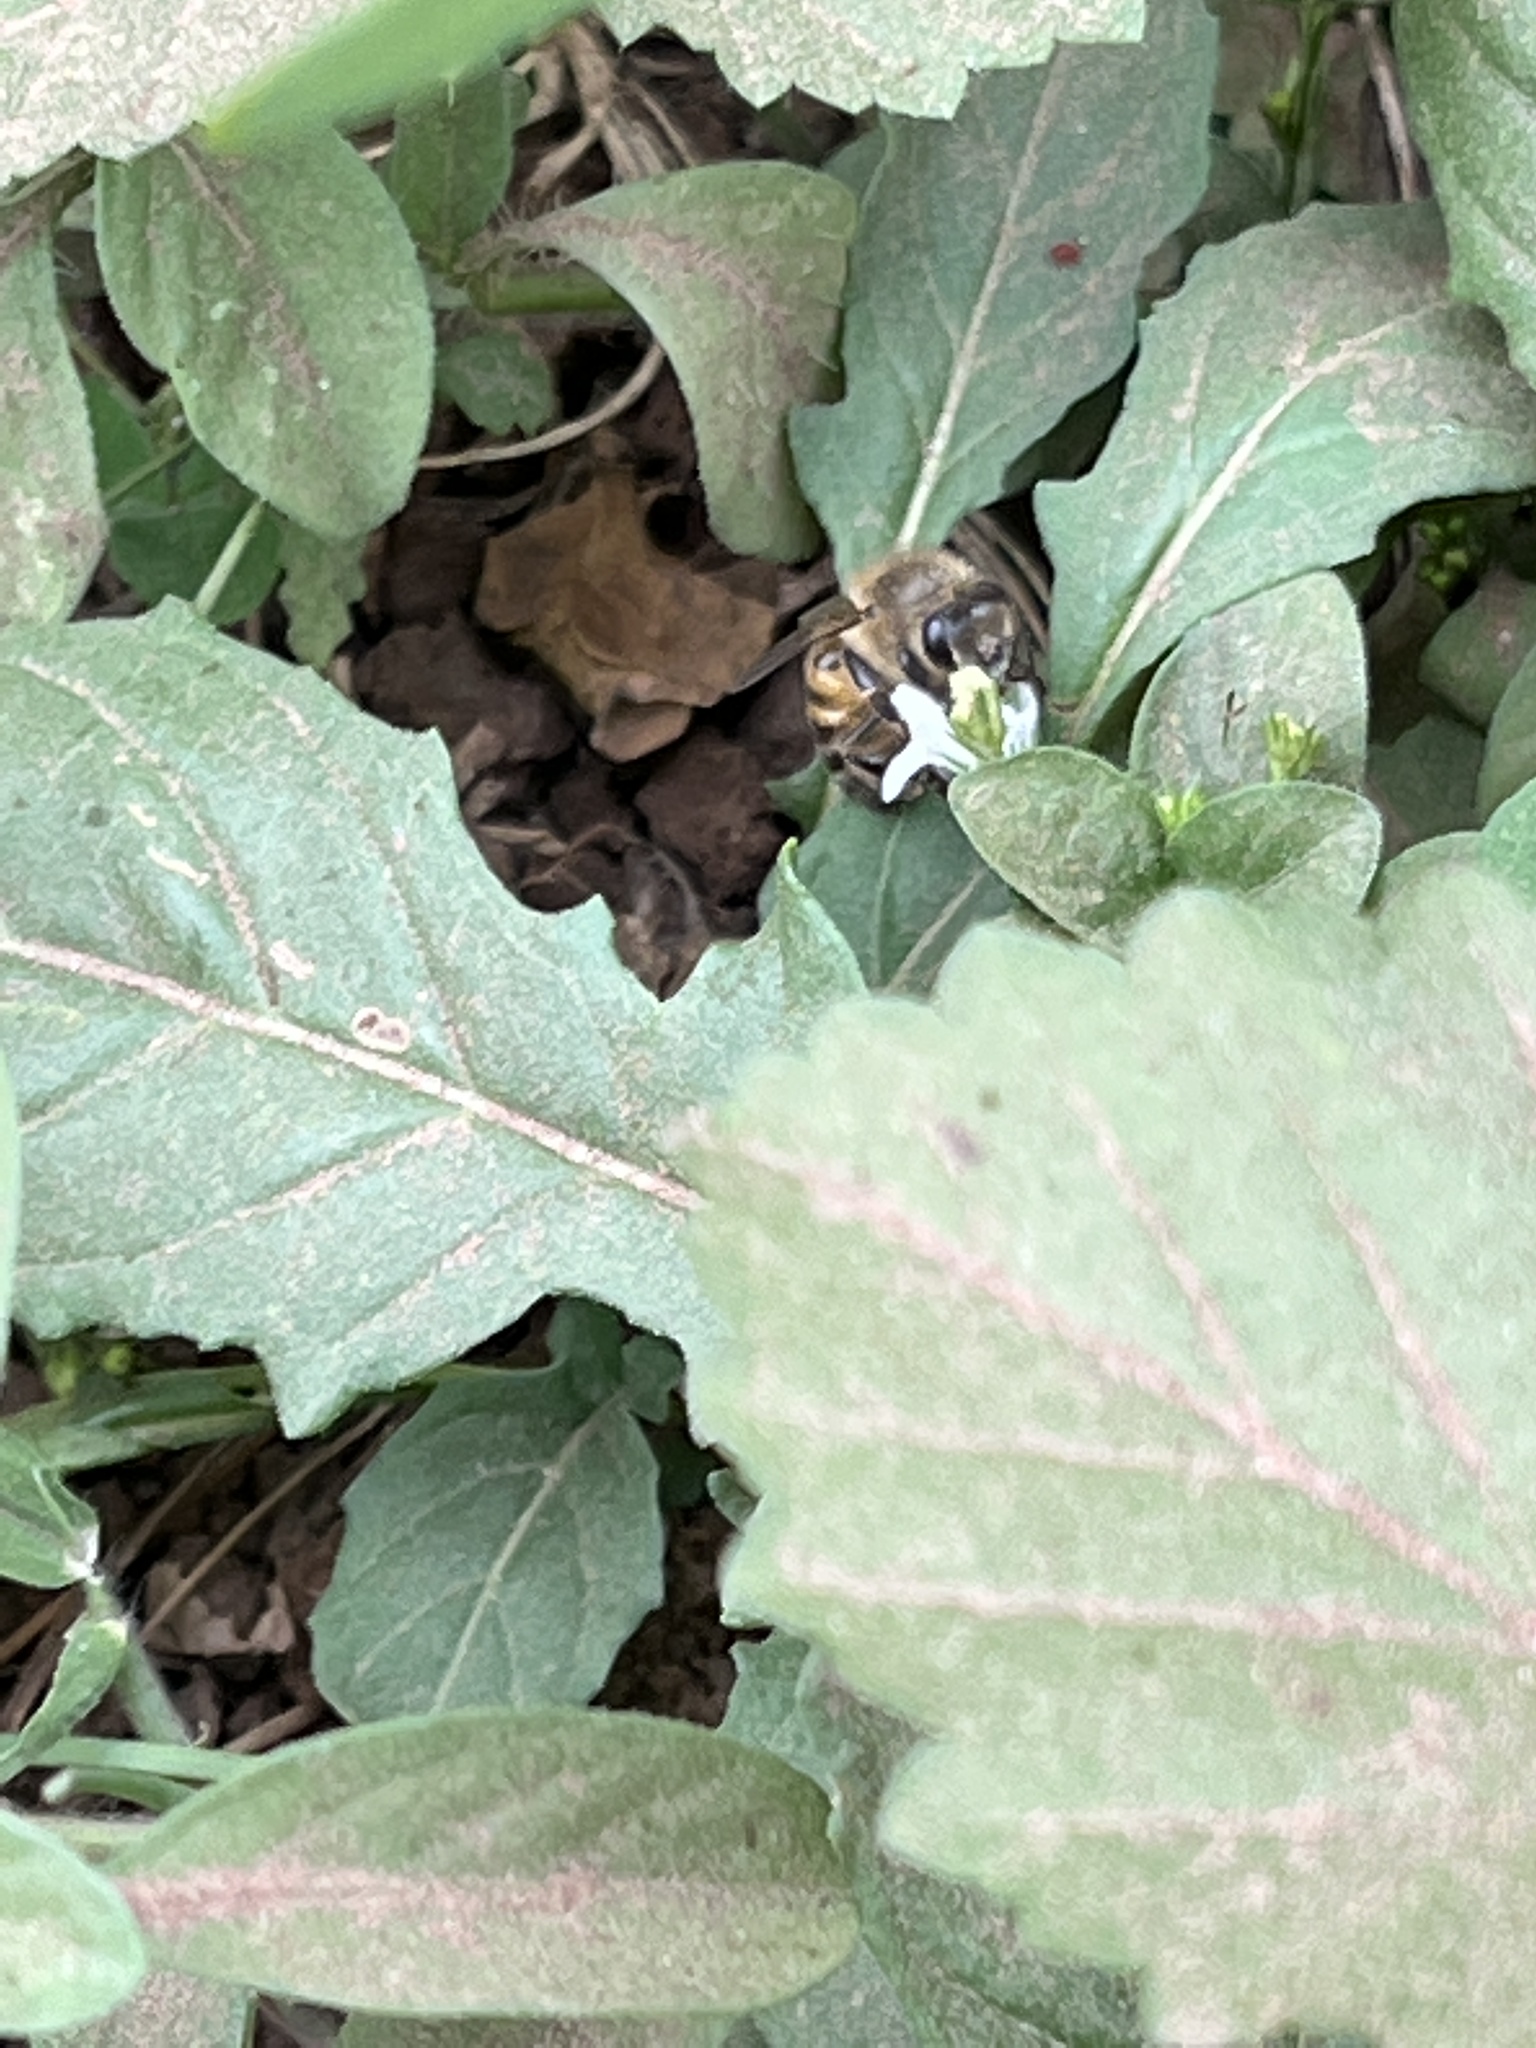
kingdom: Animalia
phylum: Arthropoda
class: Insecta
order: Hymenoptera
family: Apidae
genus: Apis
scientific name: Apis mellifera
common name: Honey bee
